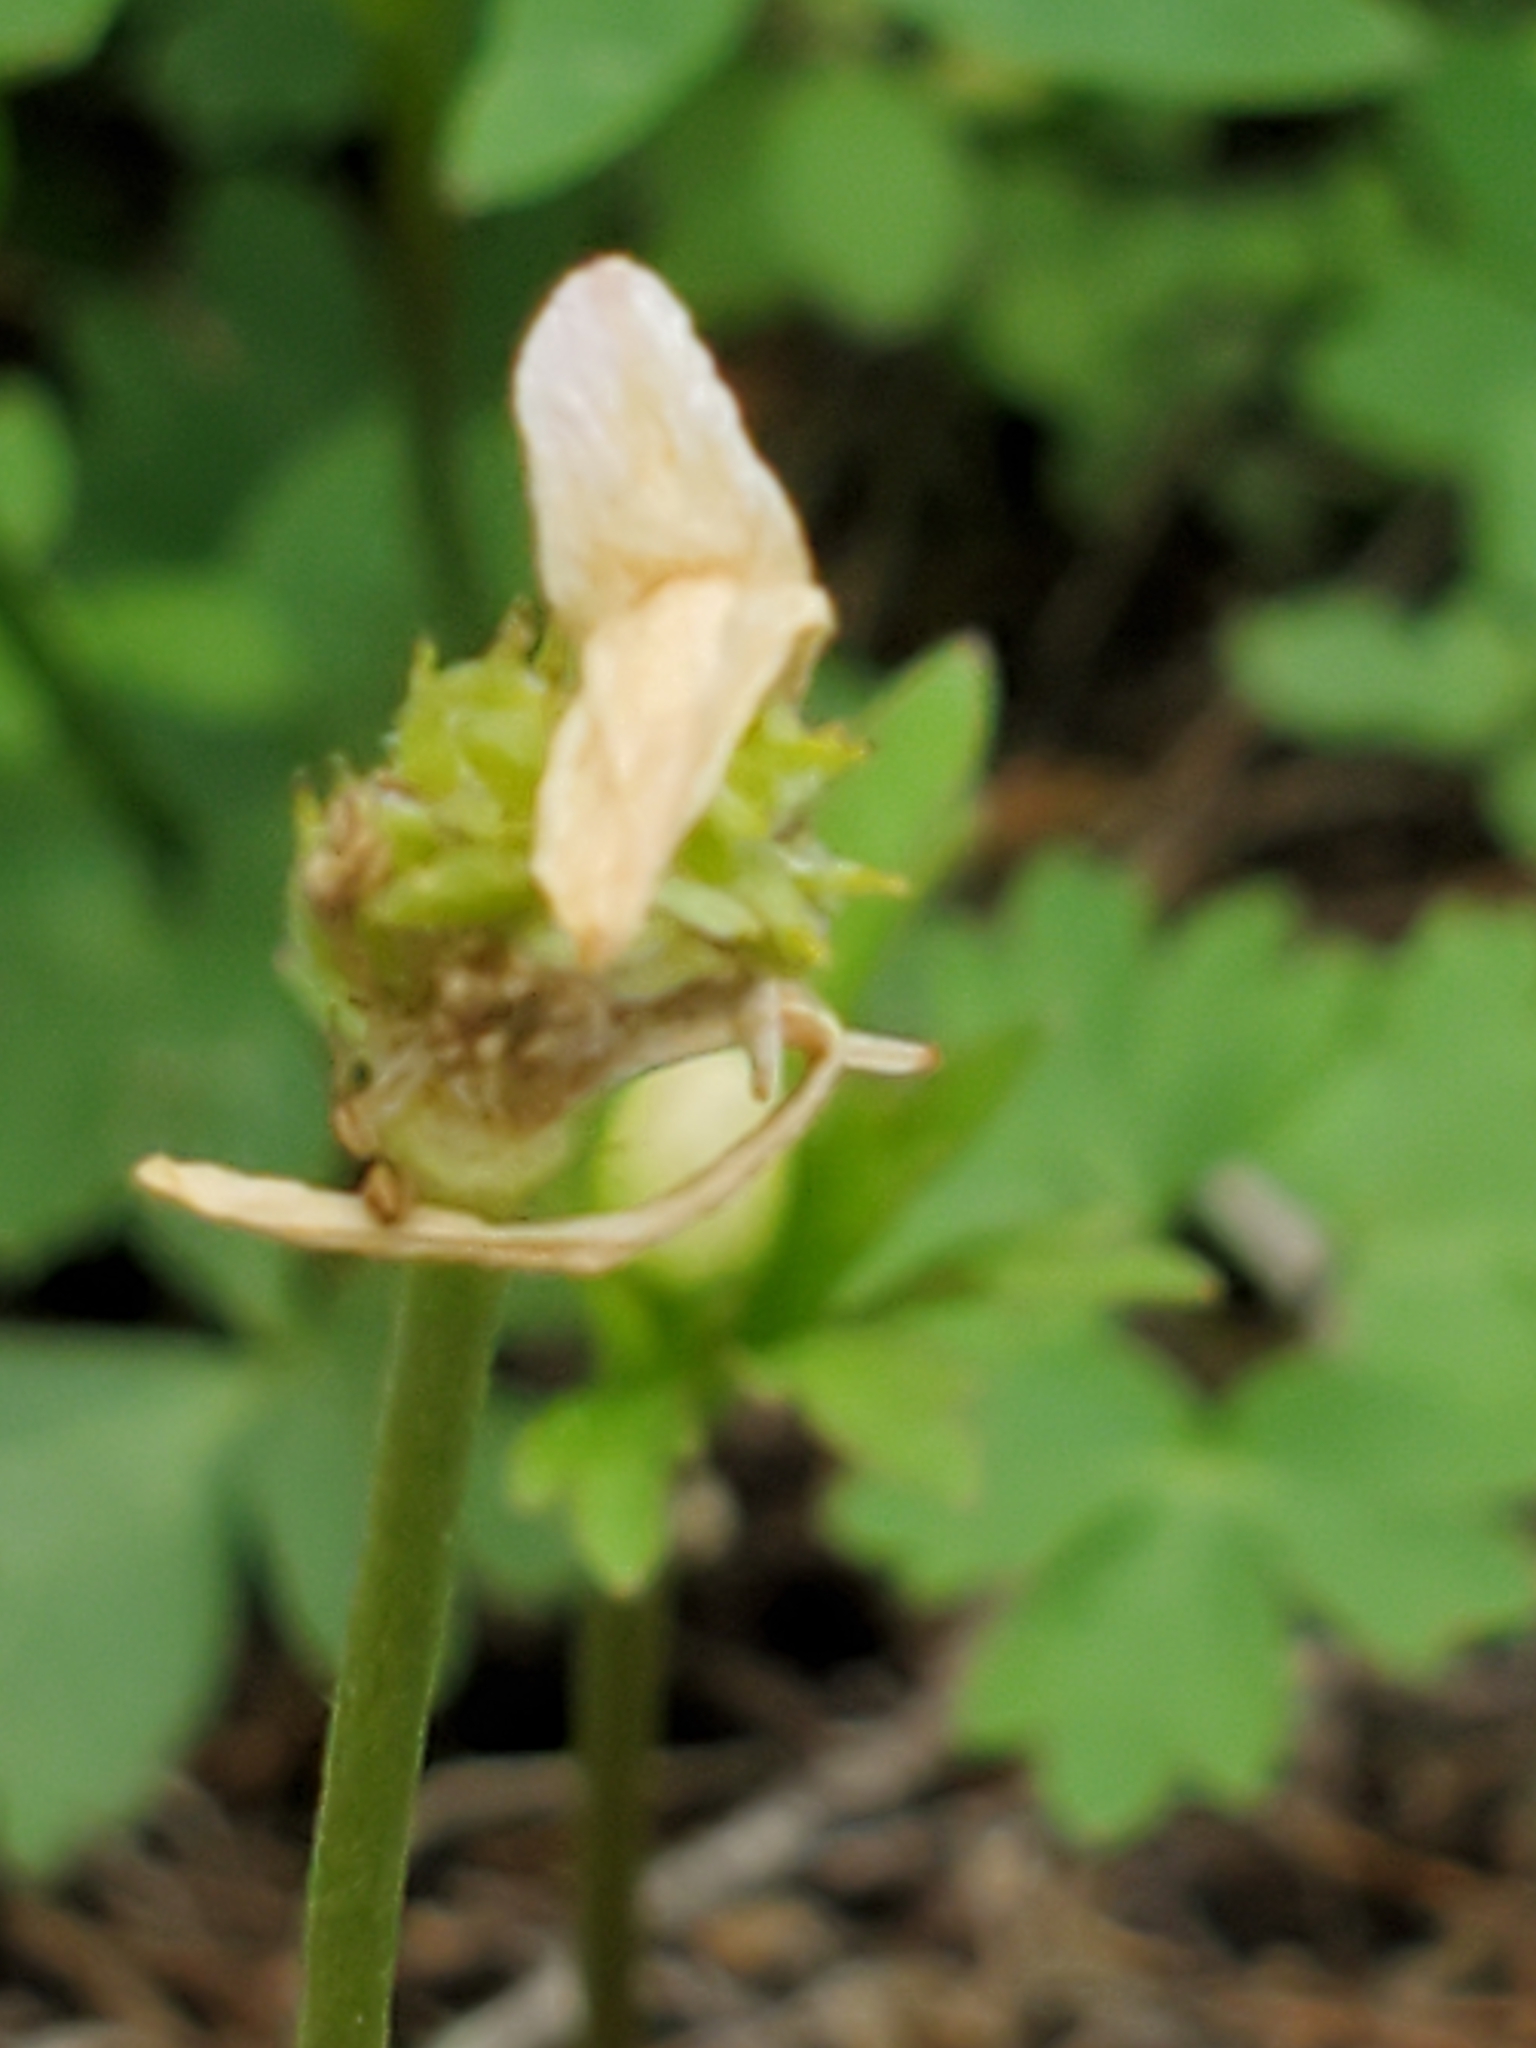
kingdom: Plantae
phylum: Tracheophyta
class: Magnoliopsida
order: Ranunculales
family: Ranunculaceae
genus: Anemone
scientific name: Anemone edwardsiana
